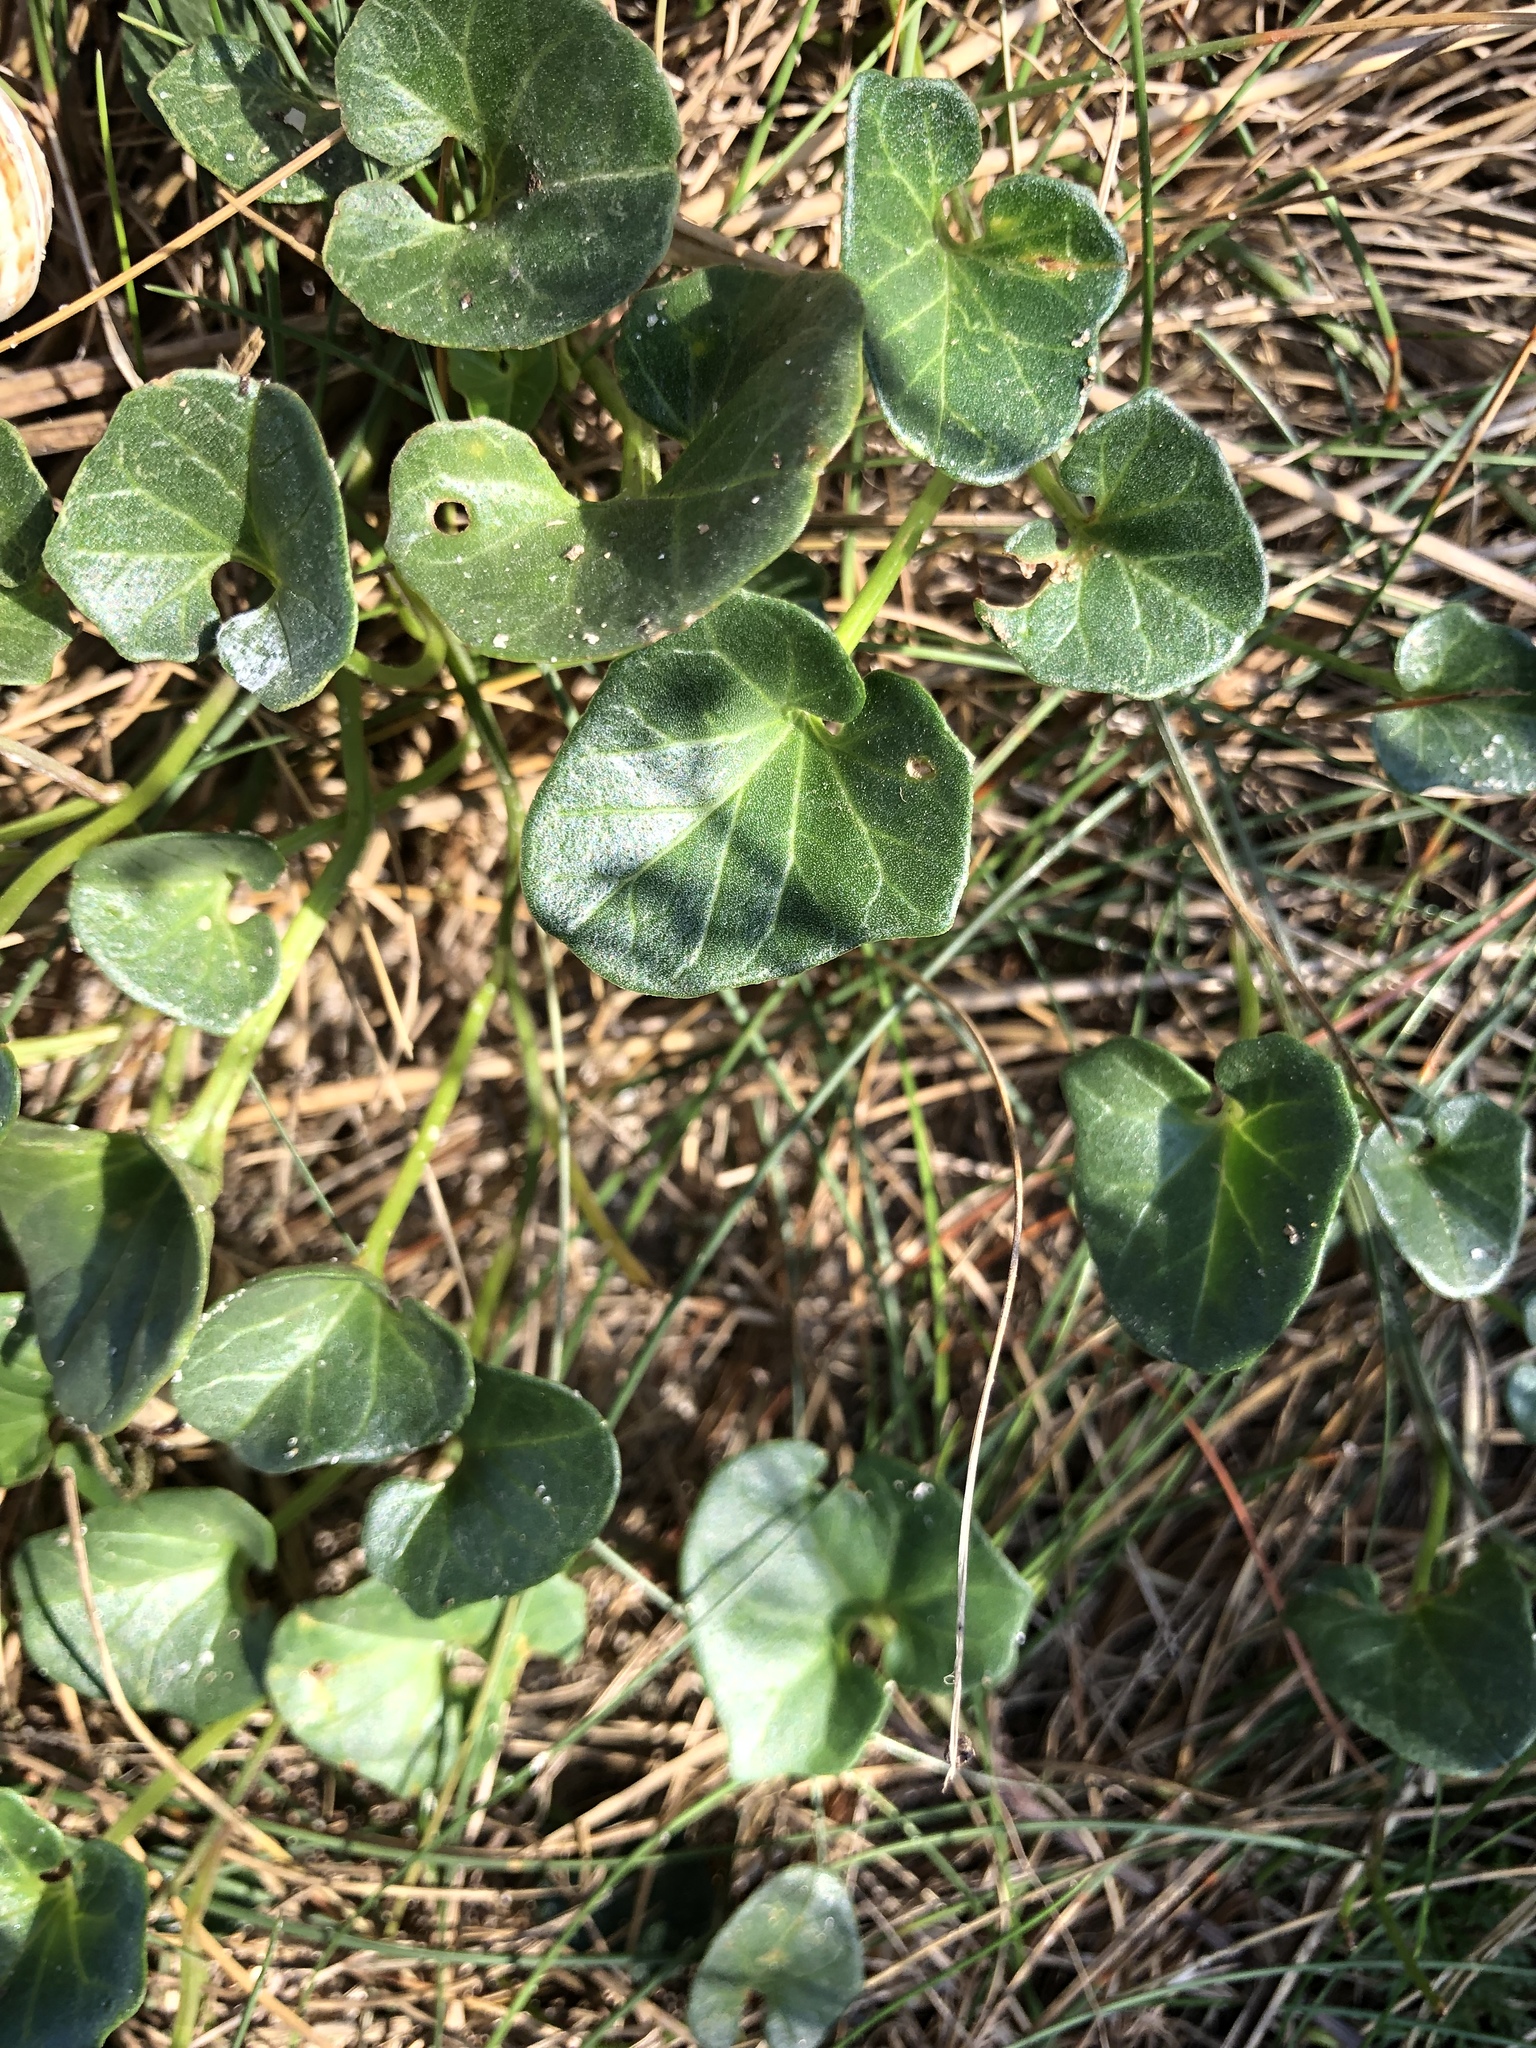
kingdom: Plantae
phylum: Tracheophyta
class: Magnoliopsida
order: Solanales
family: Convolvulaceae
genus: Calystegia
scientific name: Calystegia soldanella
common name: Sea bindweed
